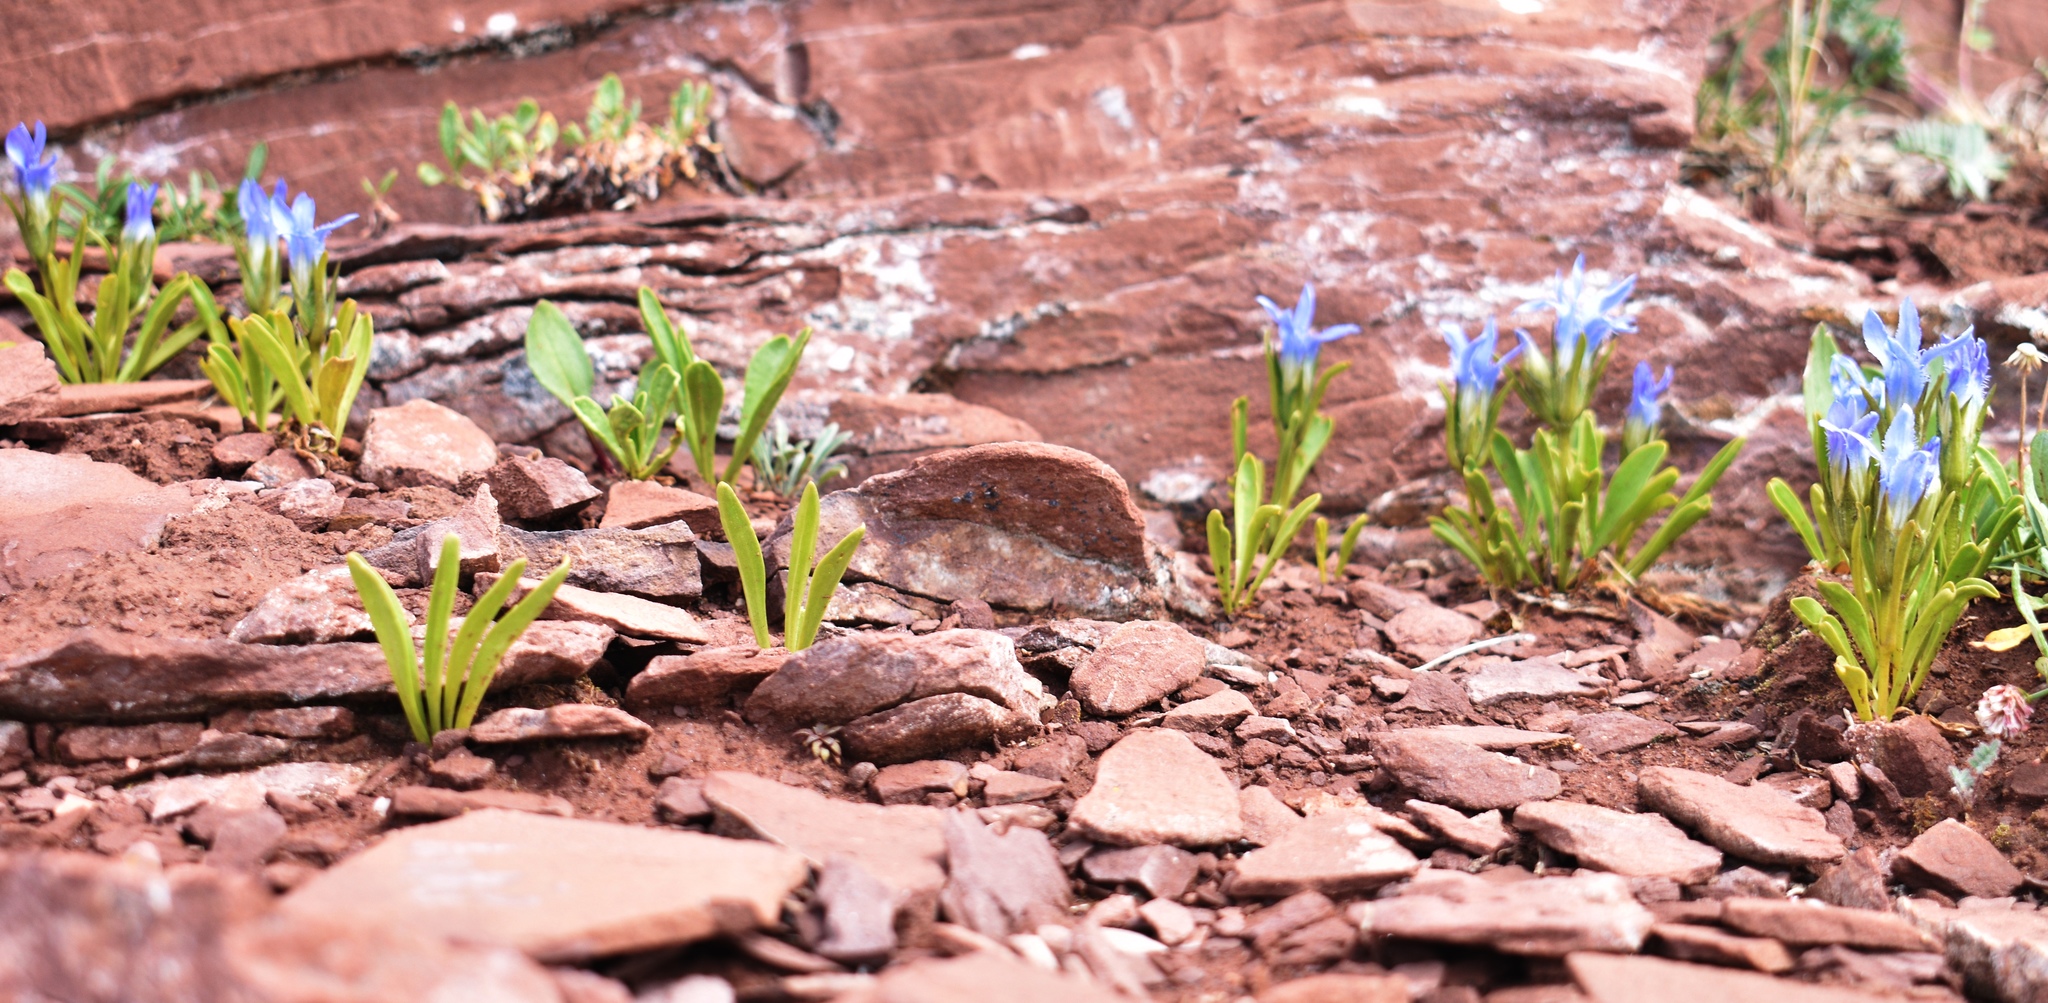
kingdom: Plantae
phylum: Tracheophyta
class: Magnoliopsida
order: Gentianales
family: Gentianaceae
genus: Gentianopsis
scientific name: Gentianopsis barbellata
